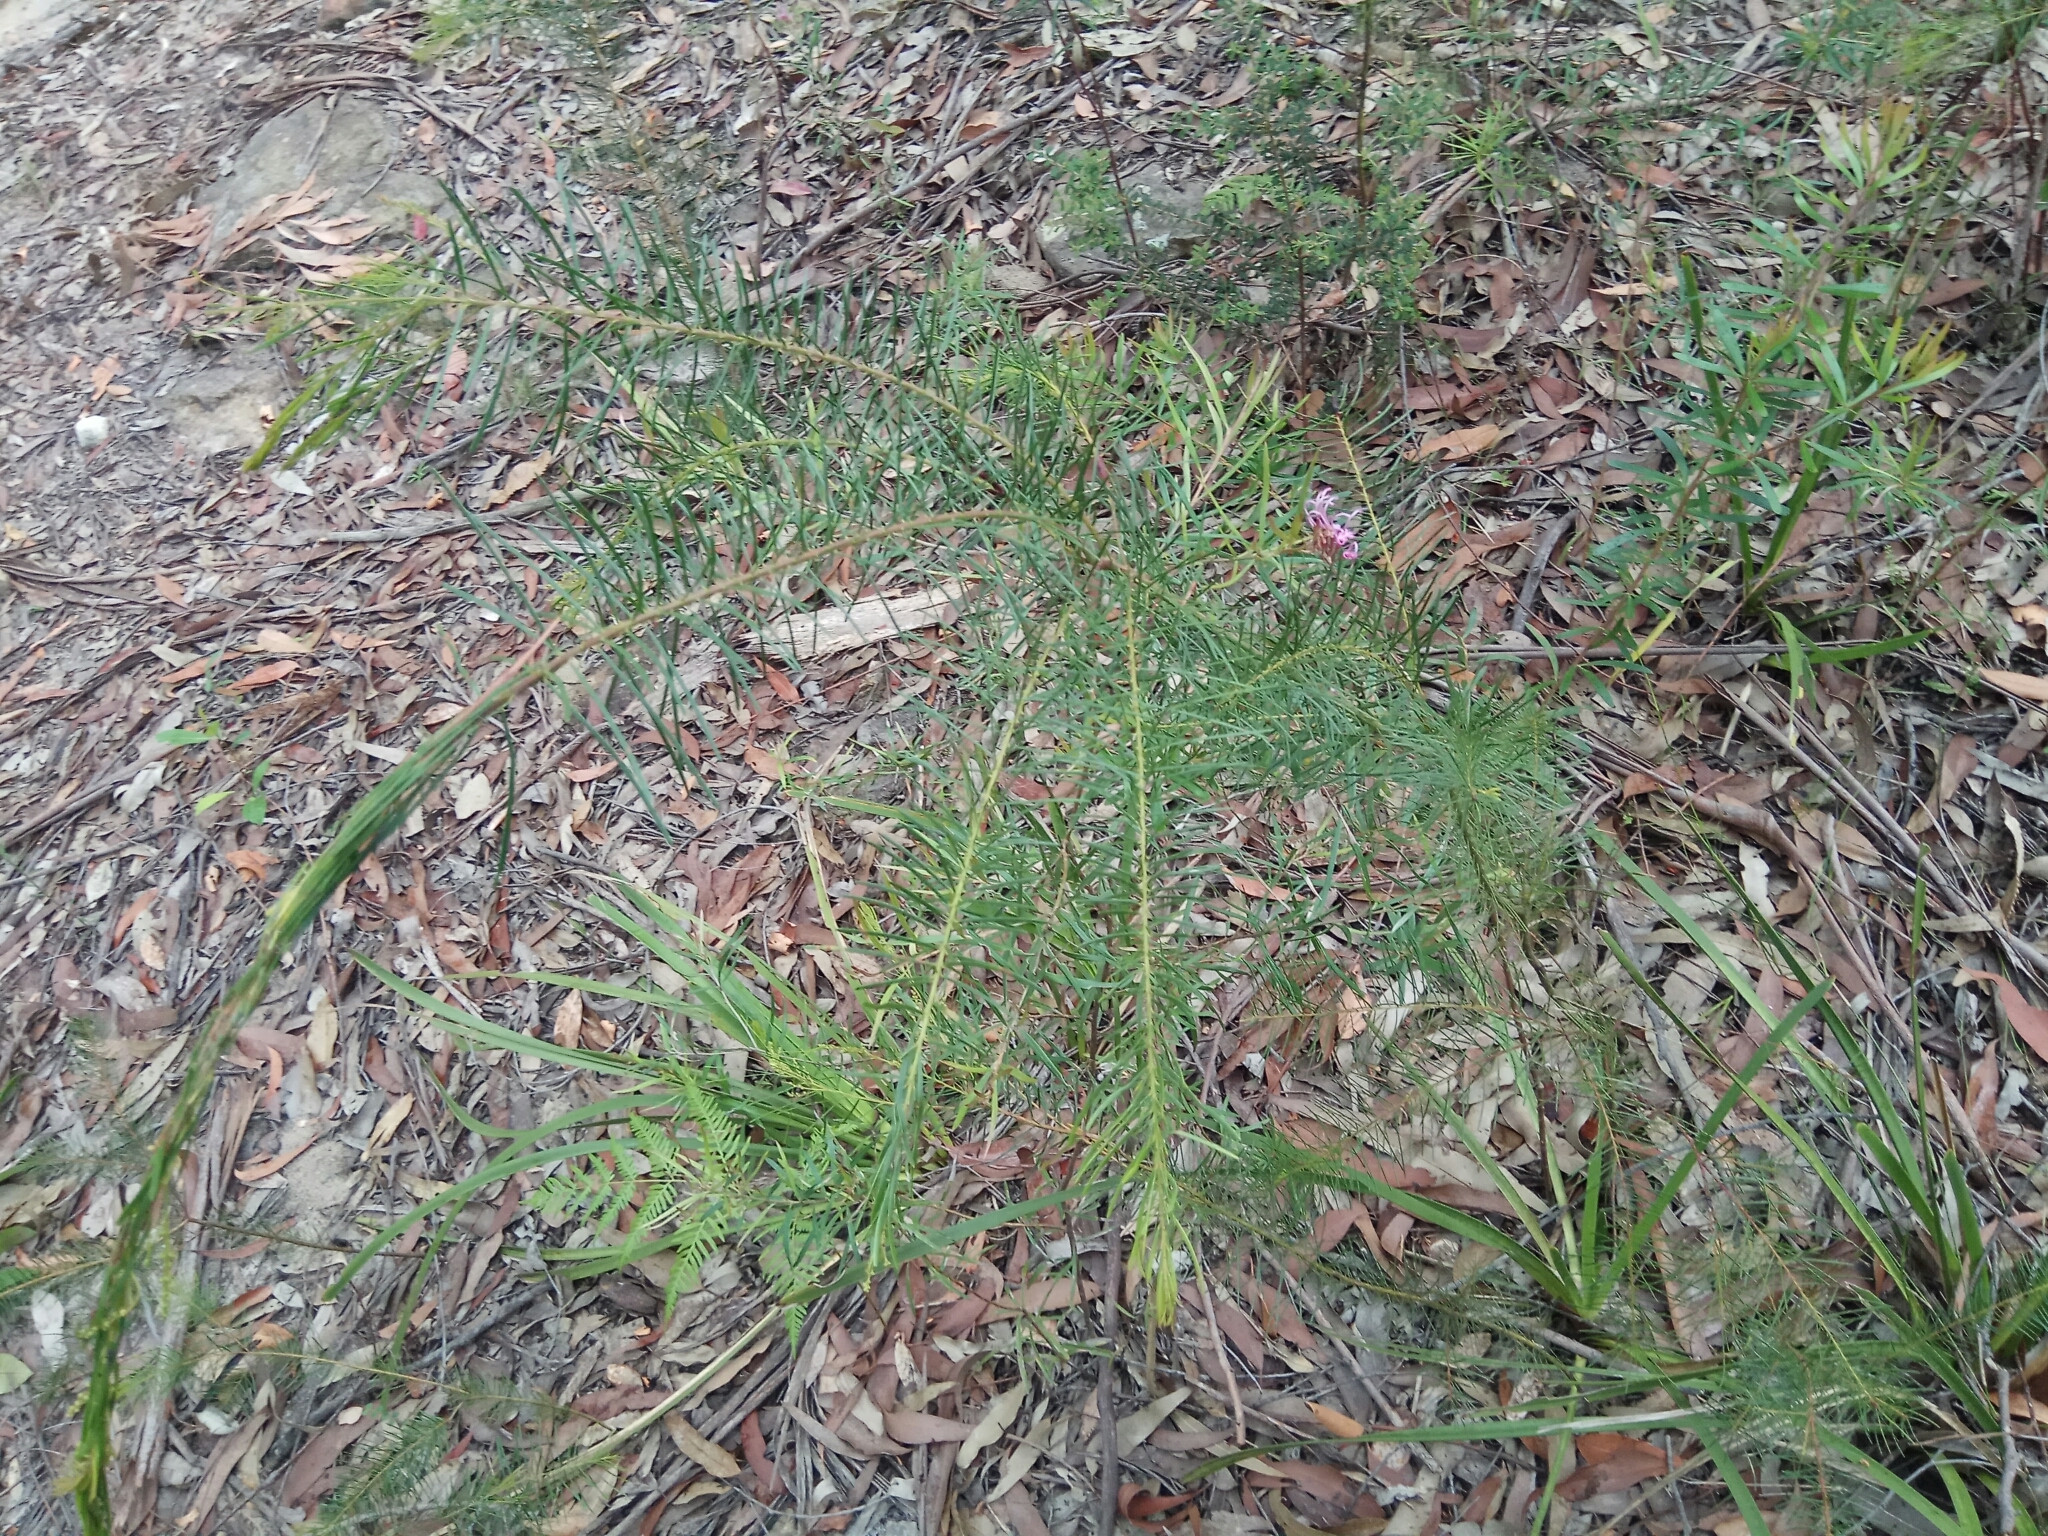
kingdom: Plantae
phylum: Tracheophyta
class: Magnoliopsida
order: Proteales
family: Proteaceae
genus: Grevillea
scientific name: Grevillea sericea
